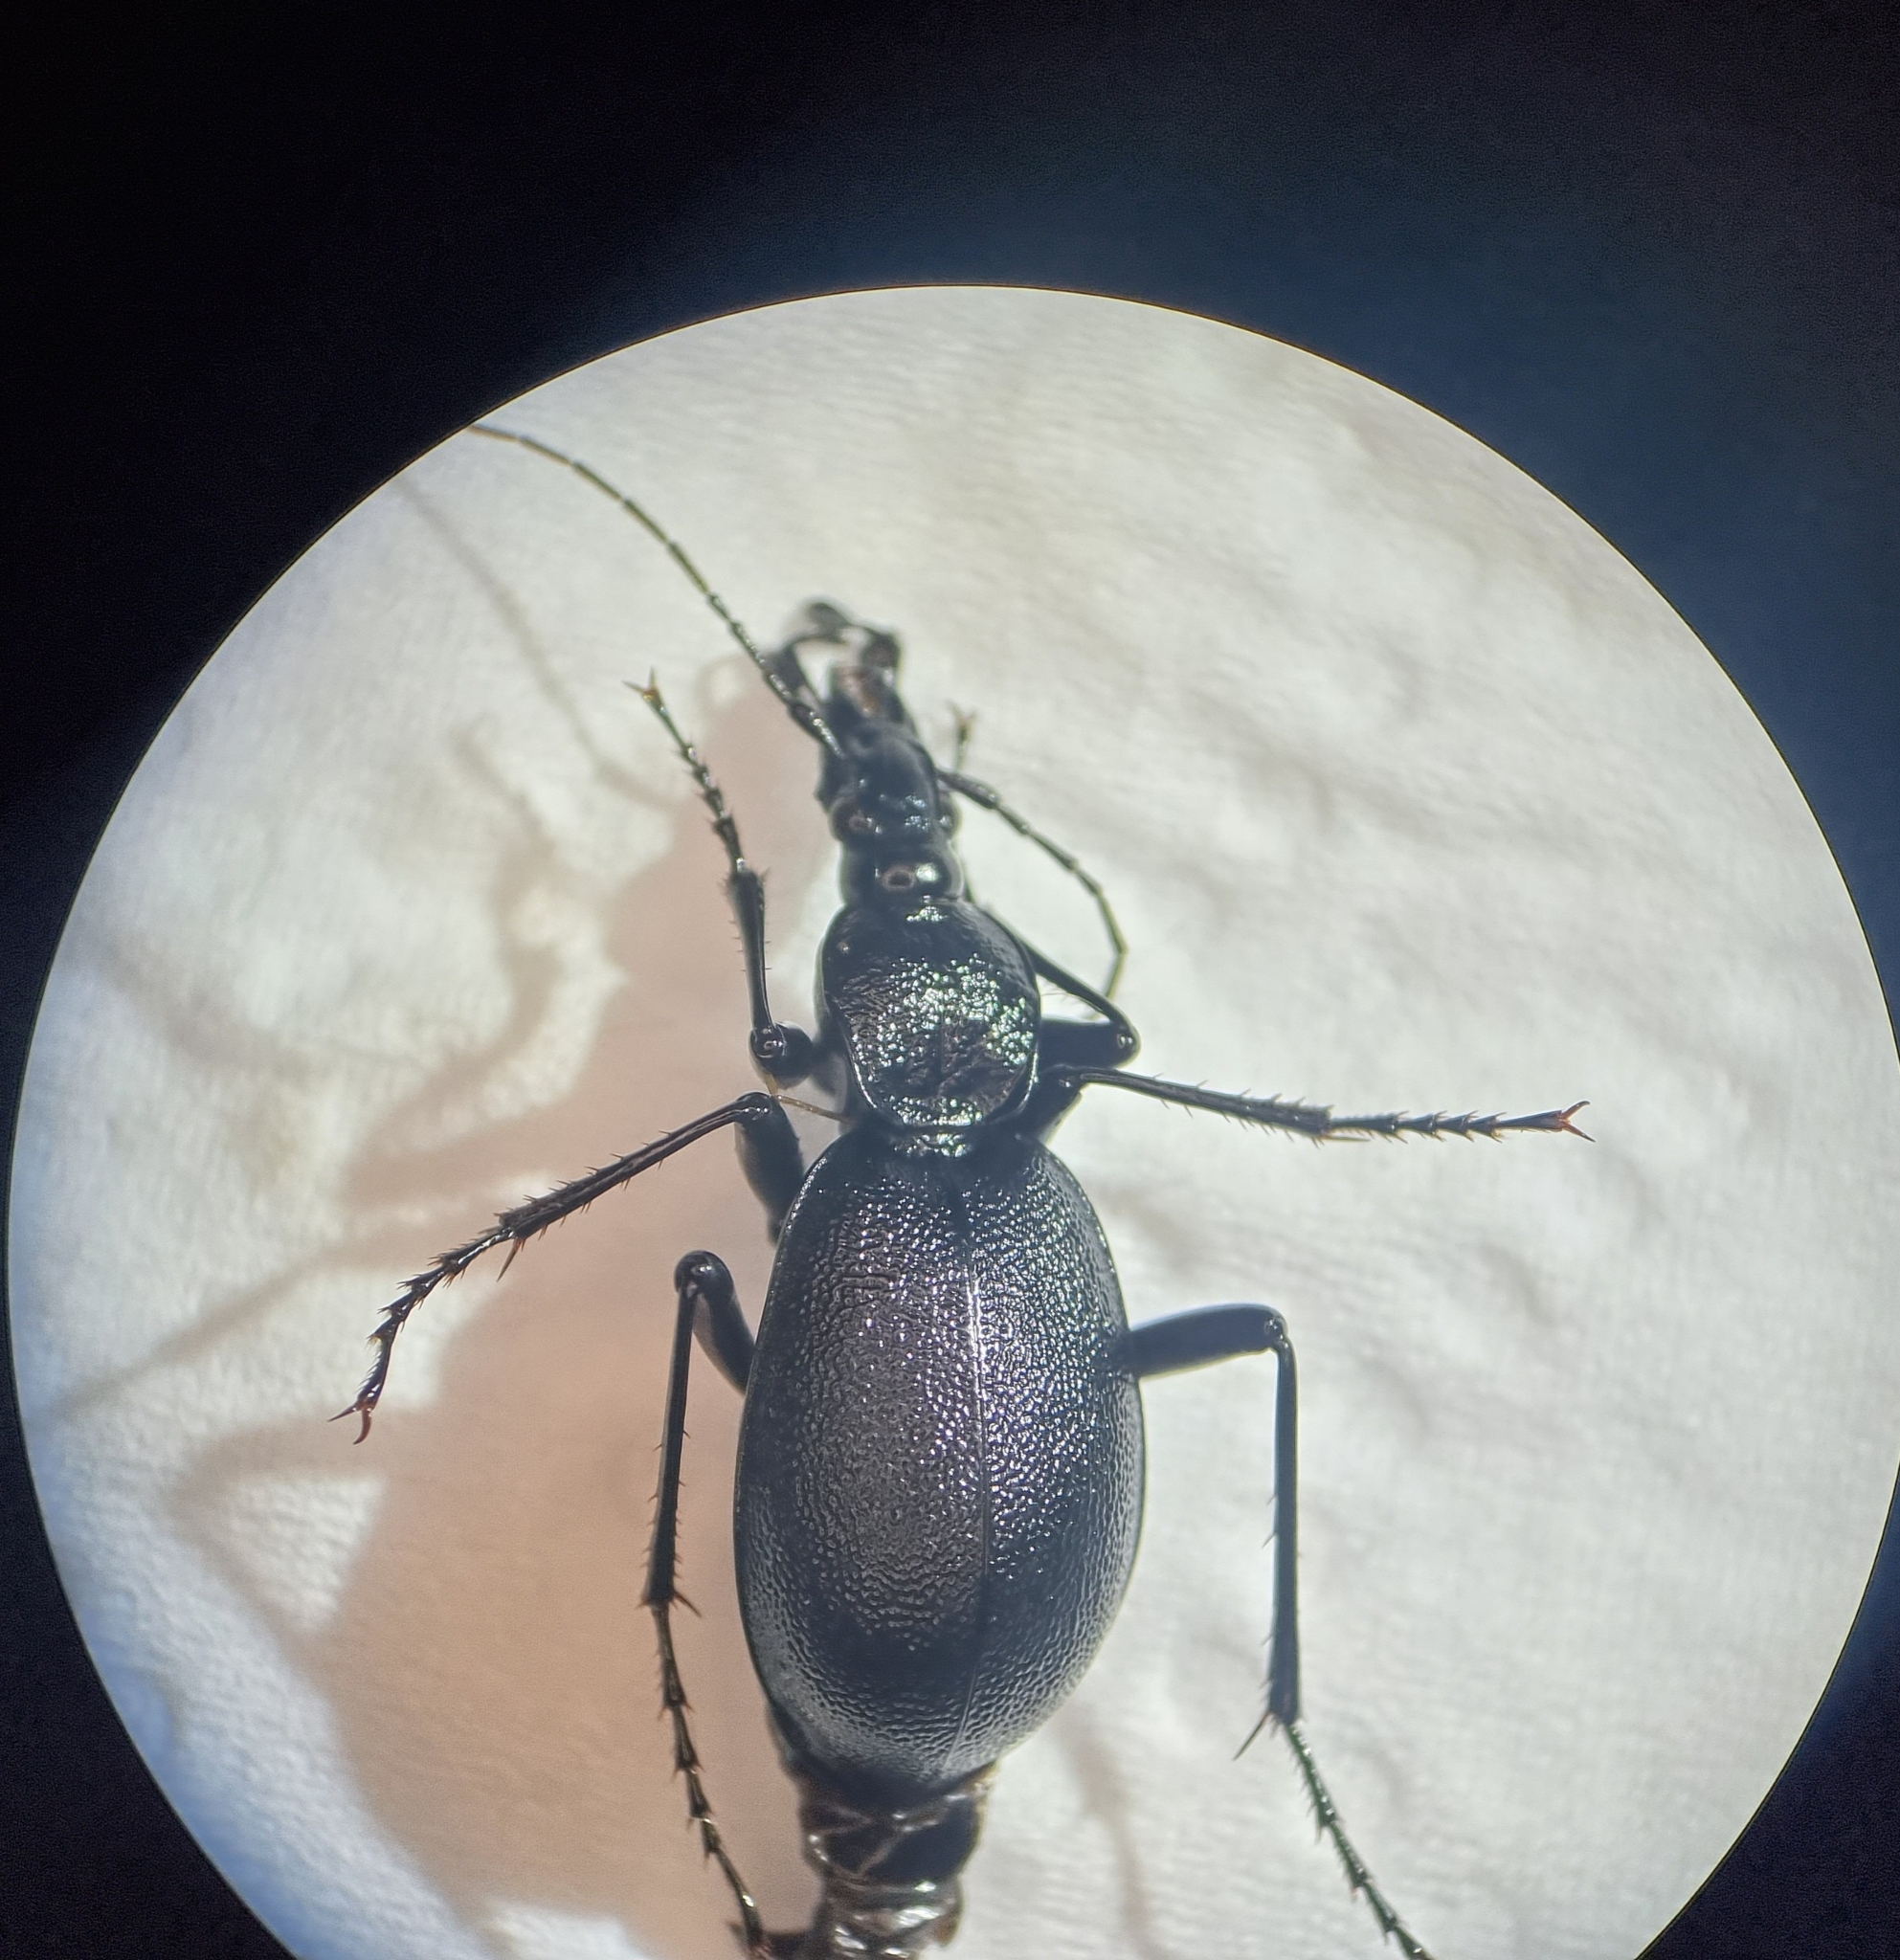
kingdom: Animalia
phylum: Arthropoda
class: Insecta
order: Coleoptera
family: Carabidae
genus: Cychrus
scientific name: Cychrus caraboides
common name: Snail hunter
